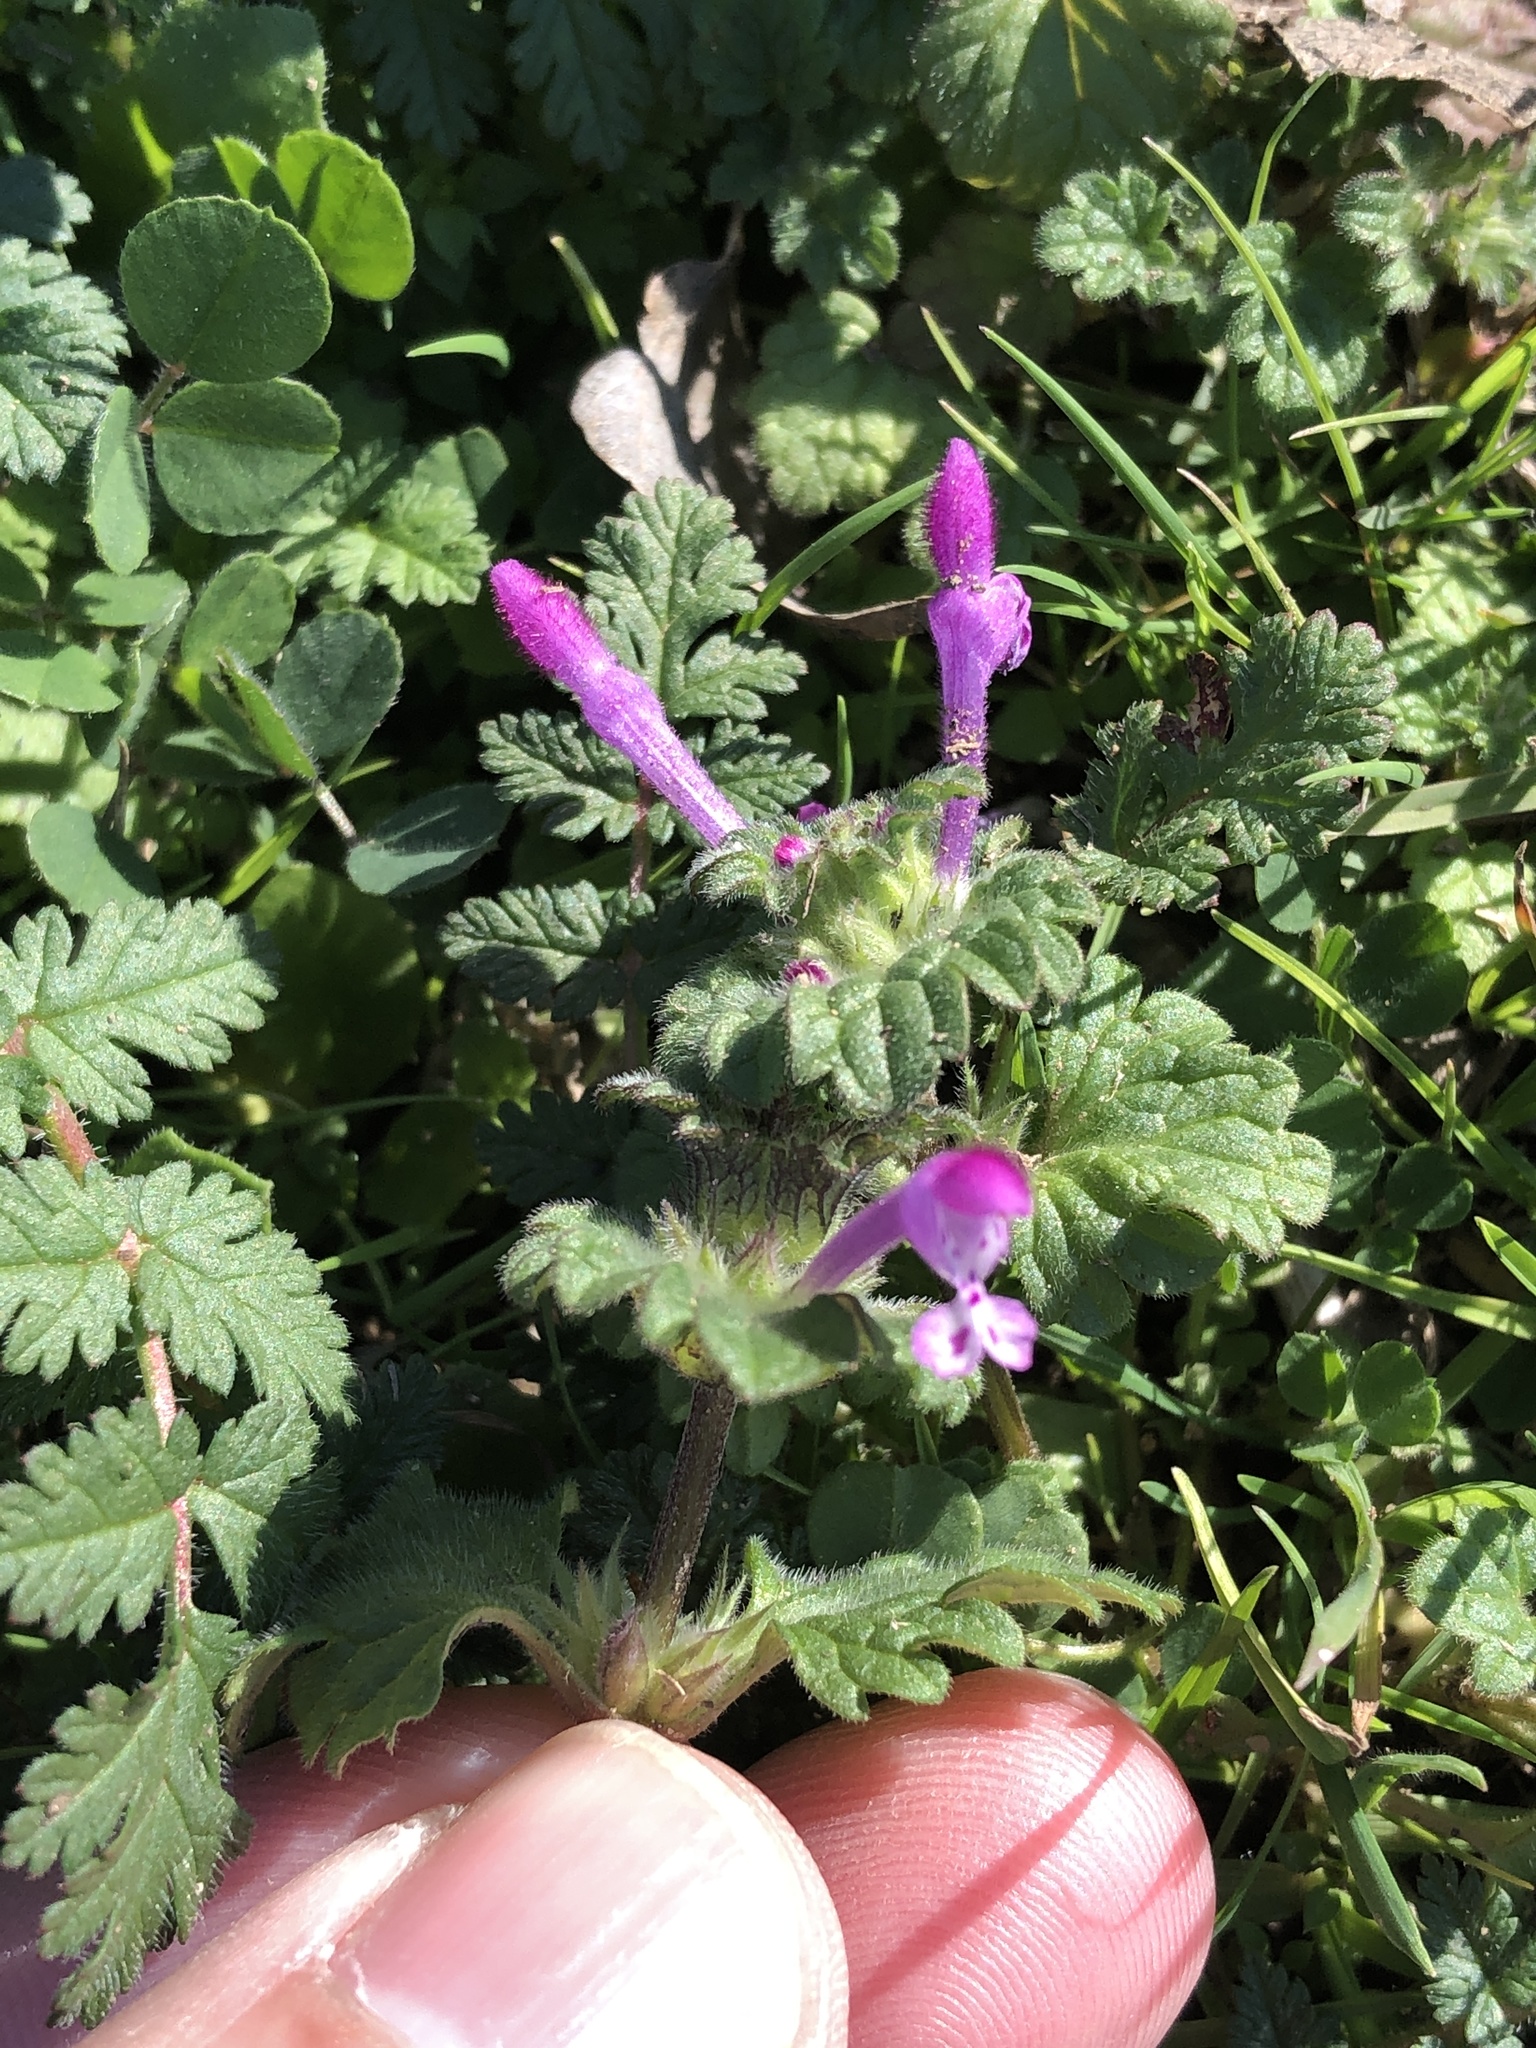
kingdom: Plantae
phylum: Tracheophyta
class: Magnoliopsida
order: Lamiales
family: Lamiaceae
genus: Lamium
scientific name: Lamium amplexicaule
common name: Henbit dead-nettle
